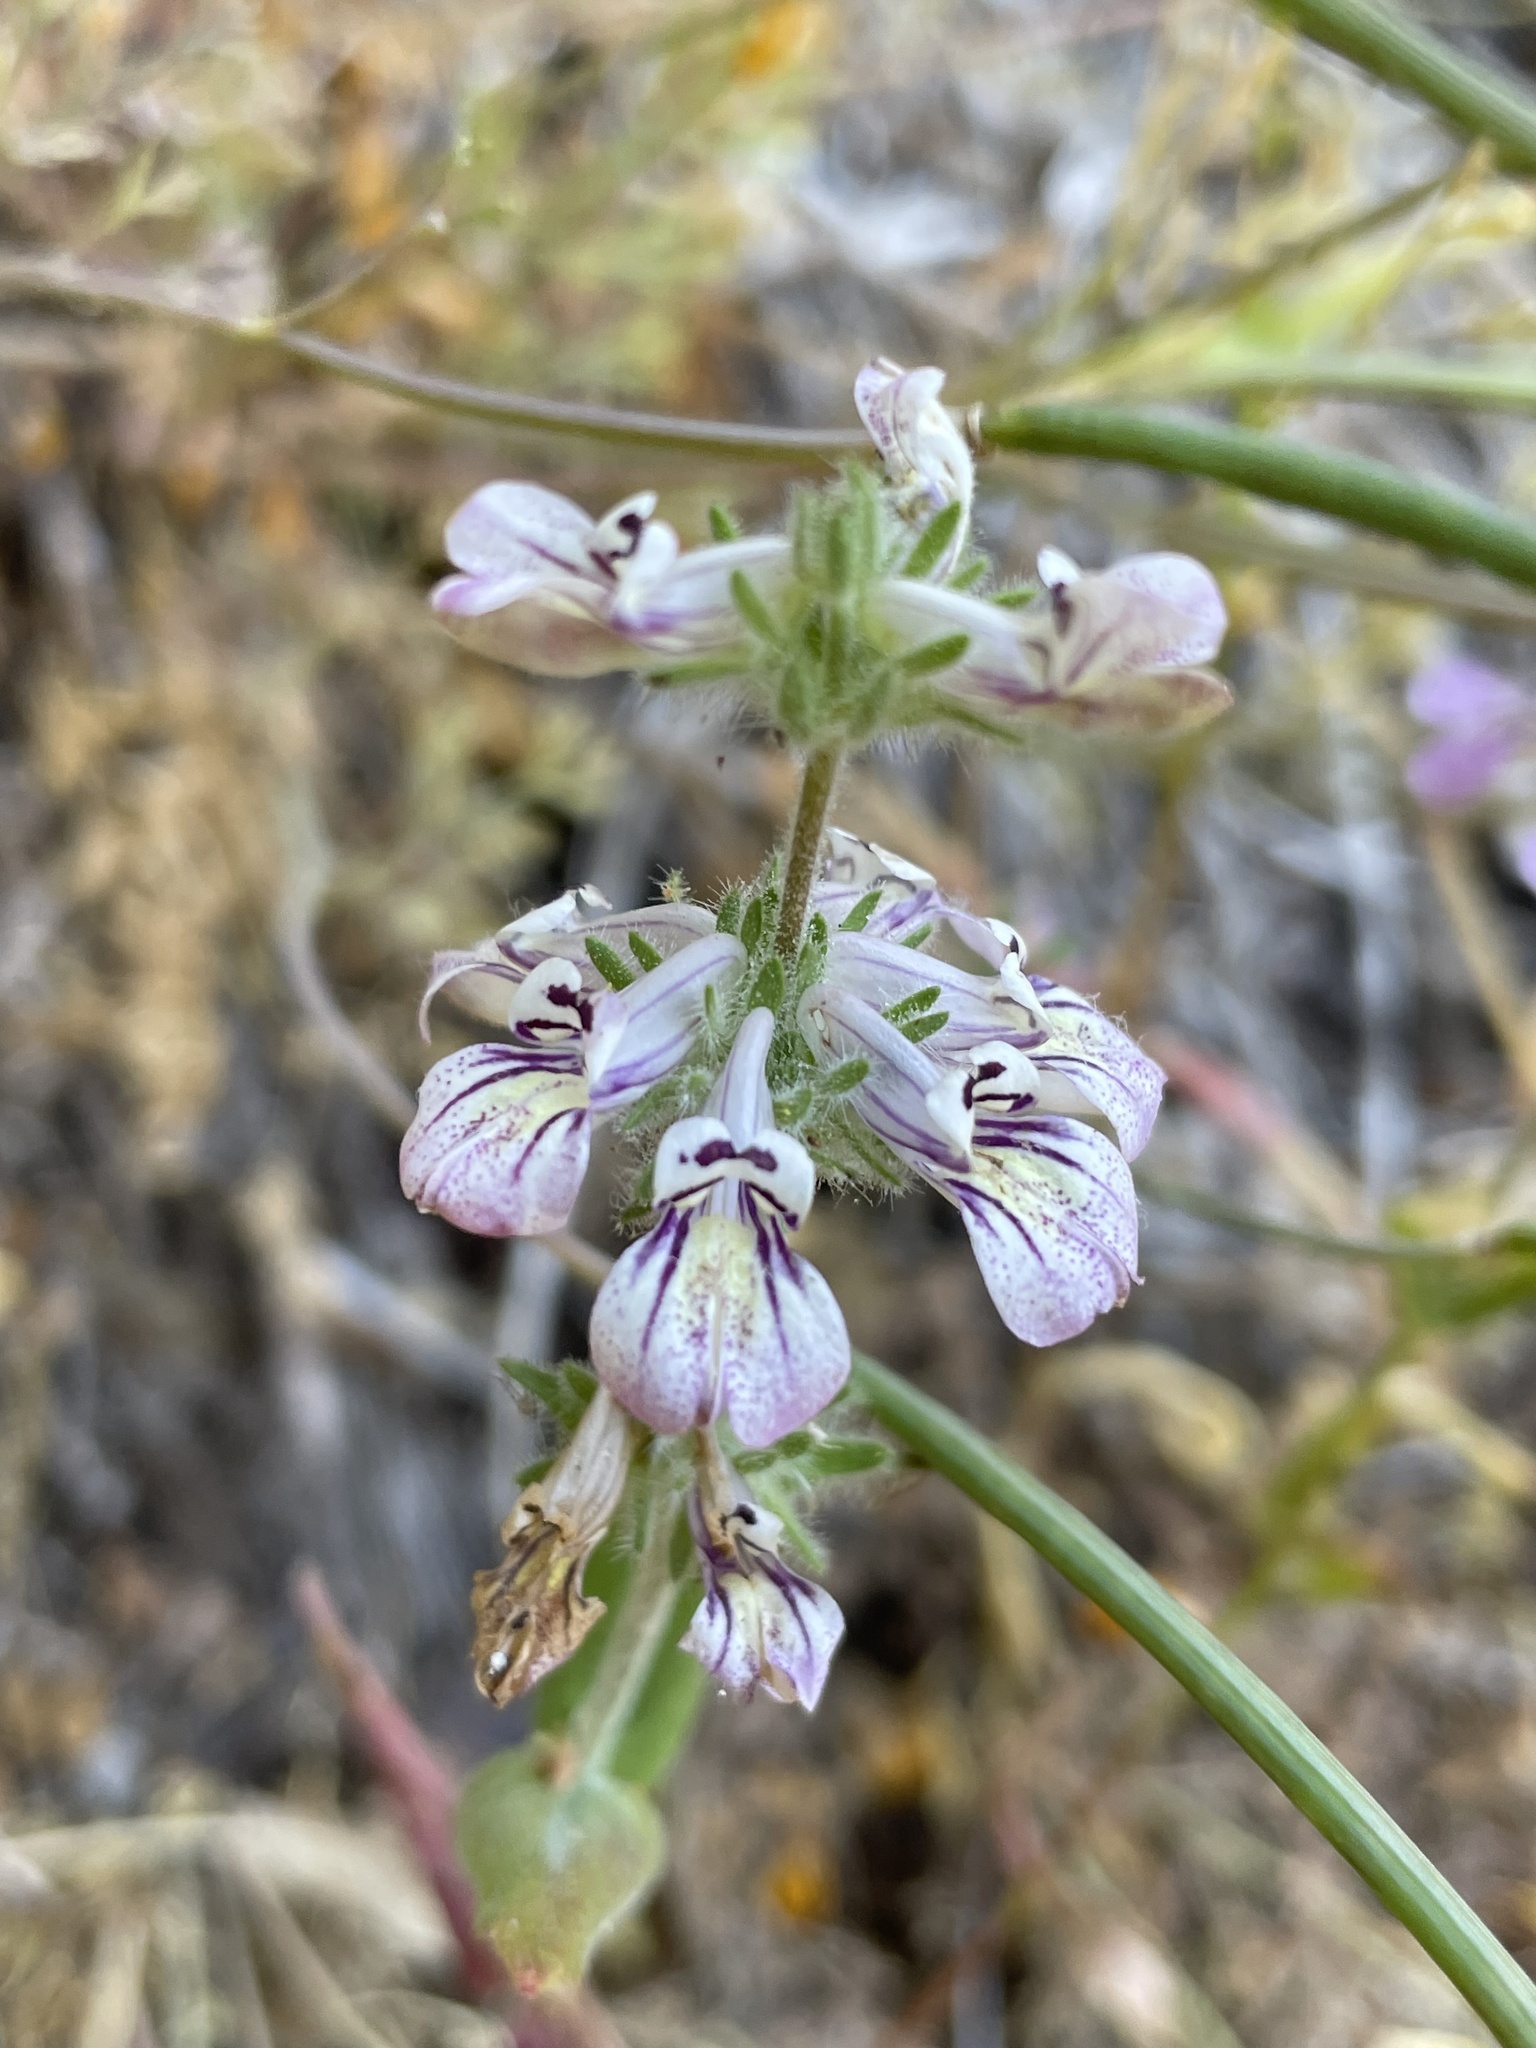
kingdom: Plantae
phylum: Tracheophyta
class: Magnoliopsida
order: Lamiales
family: Plantaginaceae
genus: Collinsia
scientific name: Collinsia tinctoria
